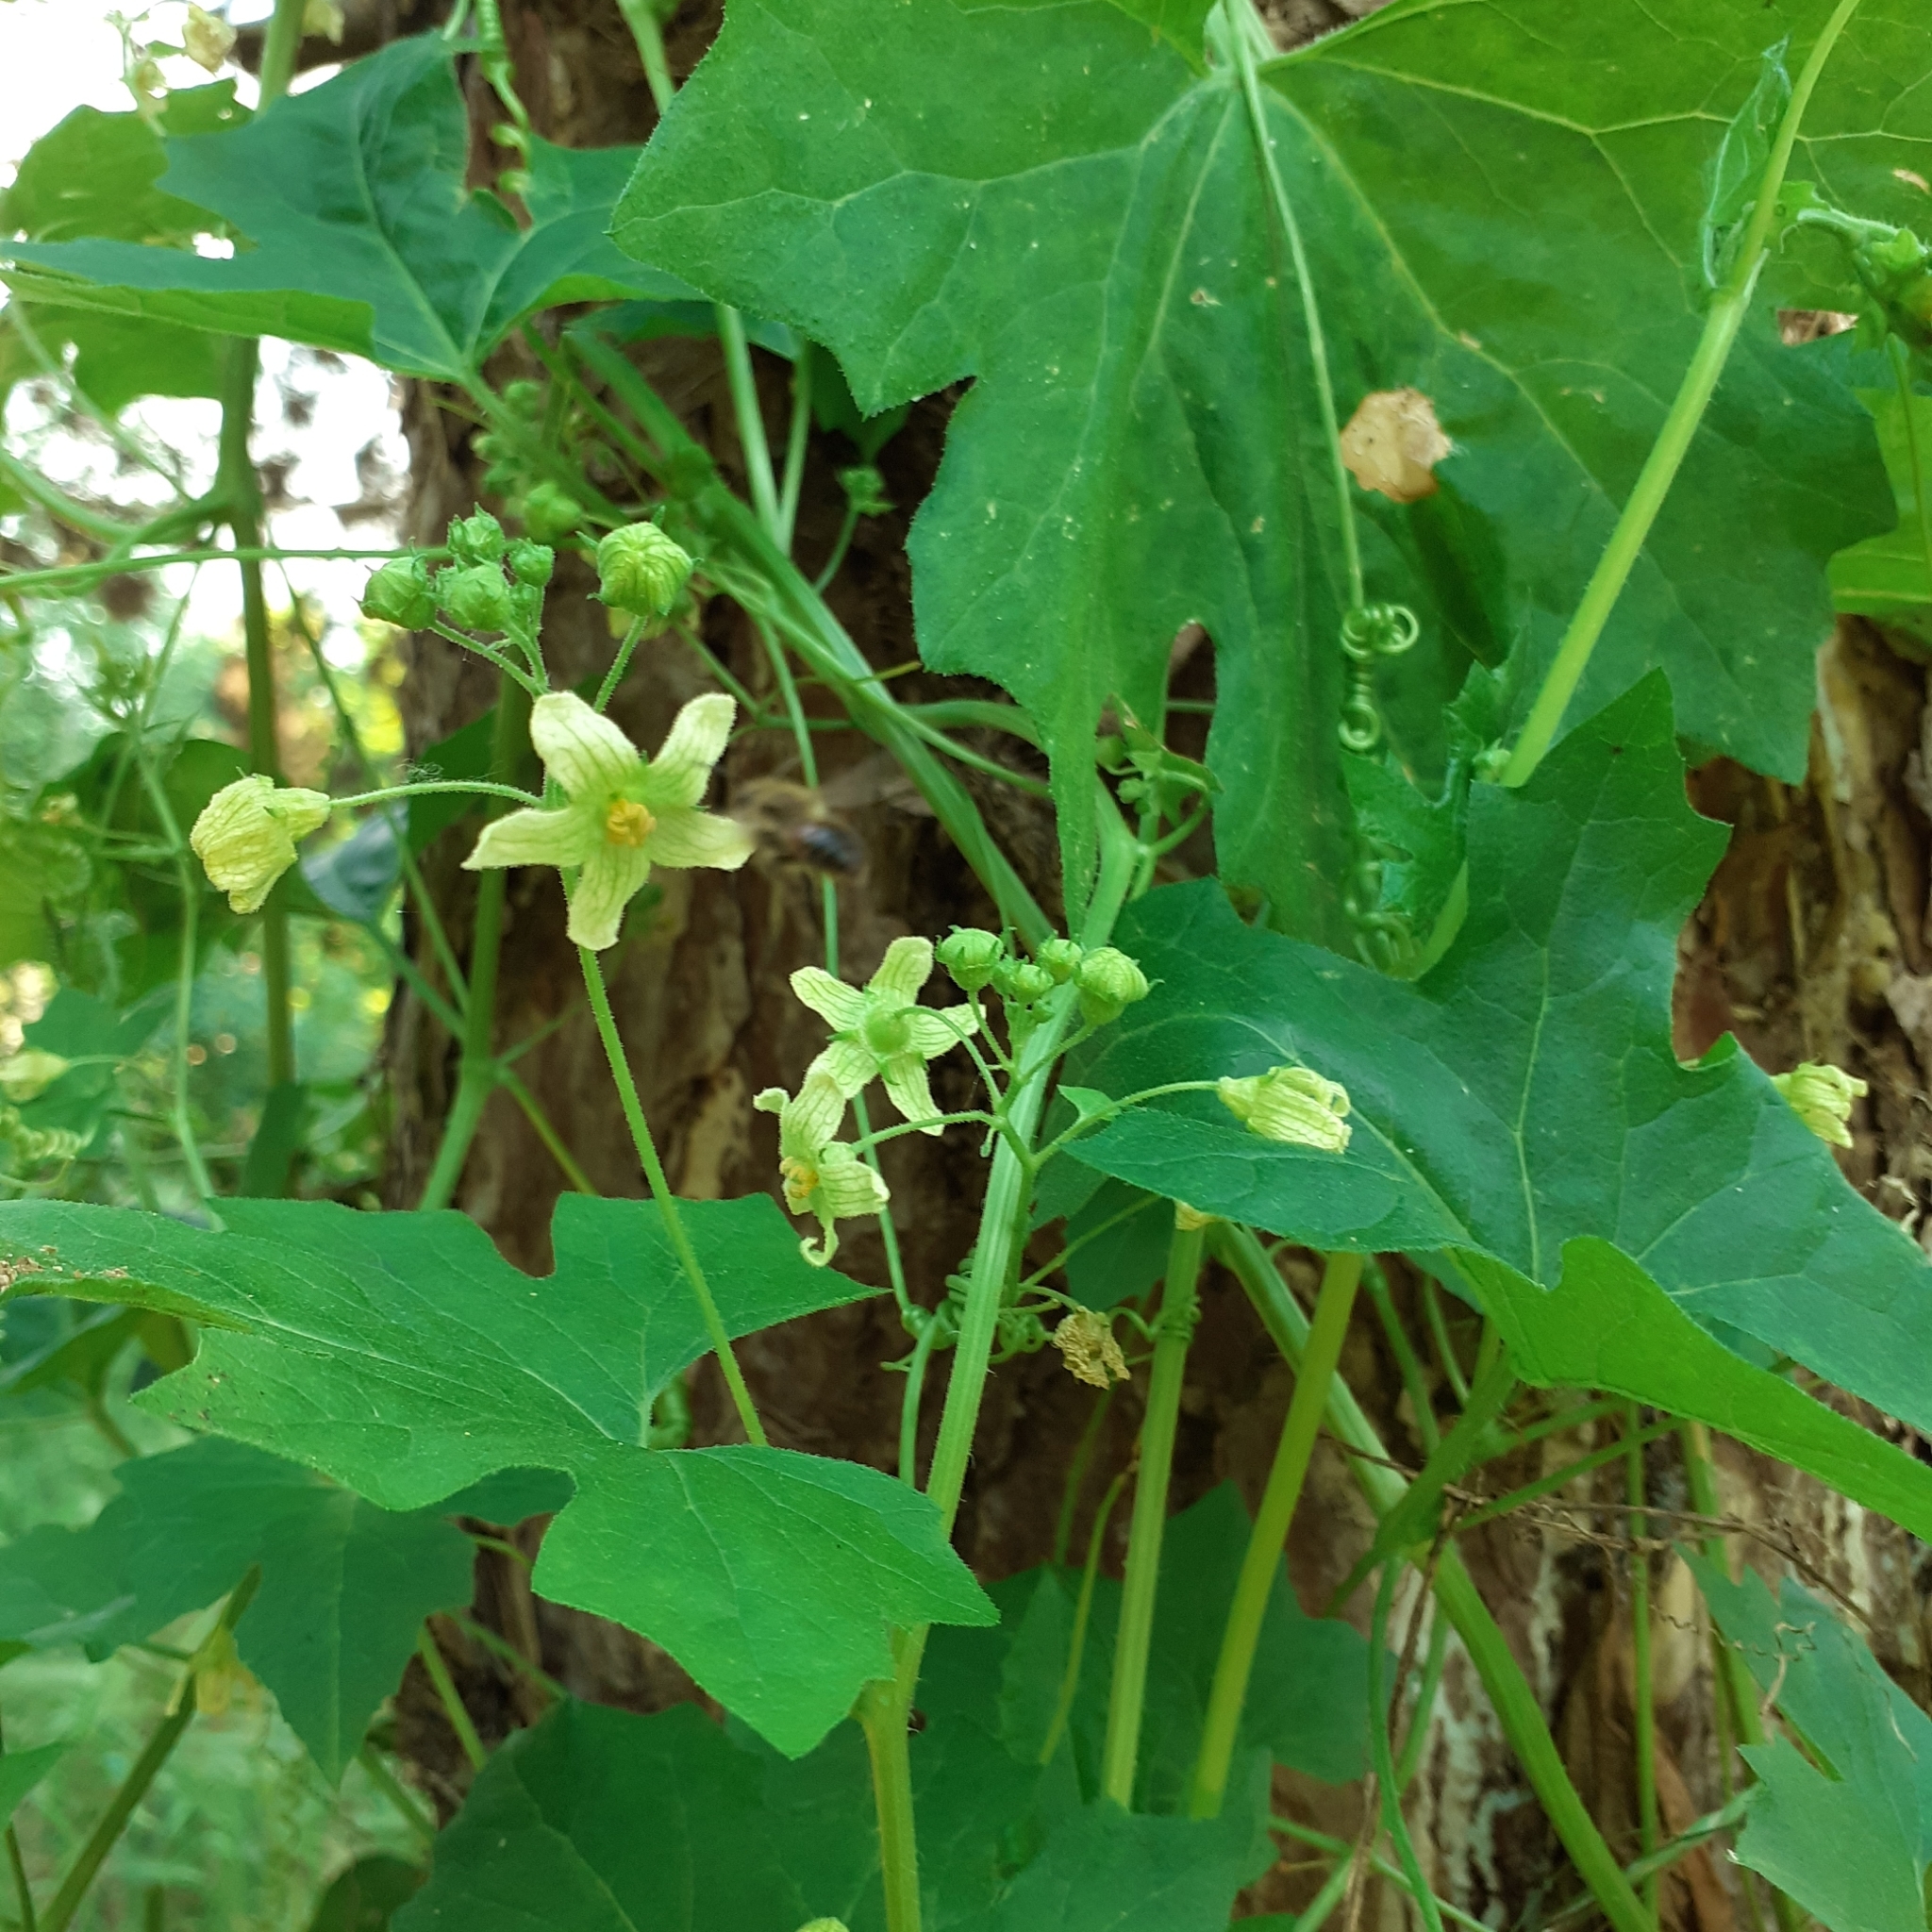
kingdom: Plantae
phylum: Tracheophyta
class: Magnoliopsida
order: Cucurbitales
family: Cucurbitaceae
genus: Bryonia
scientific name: Bryonia cretica
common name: Cretan bryony
